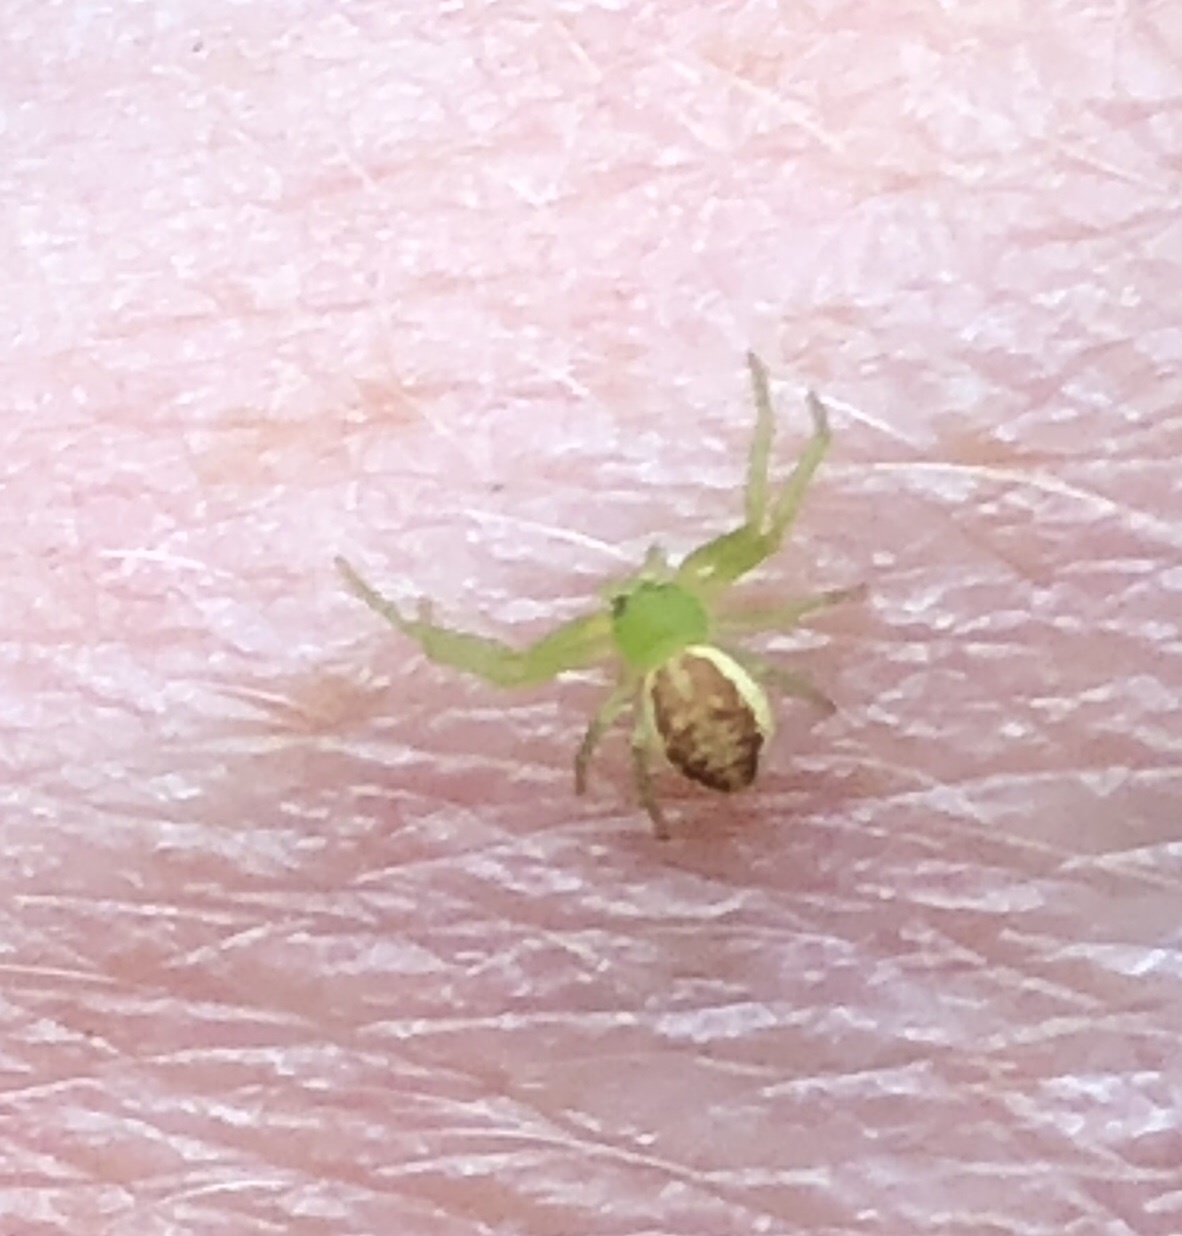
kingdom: Animalia
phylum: Arthropoda
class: Arachnida
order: Araneae
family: Thomisidae
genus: Diaea
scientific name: Diaea dorsata
